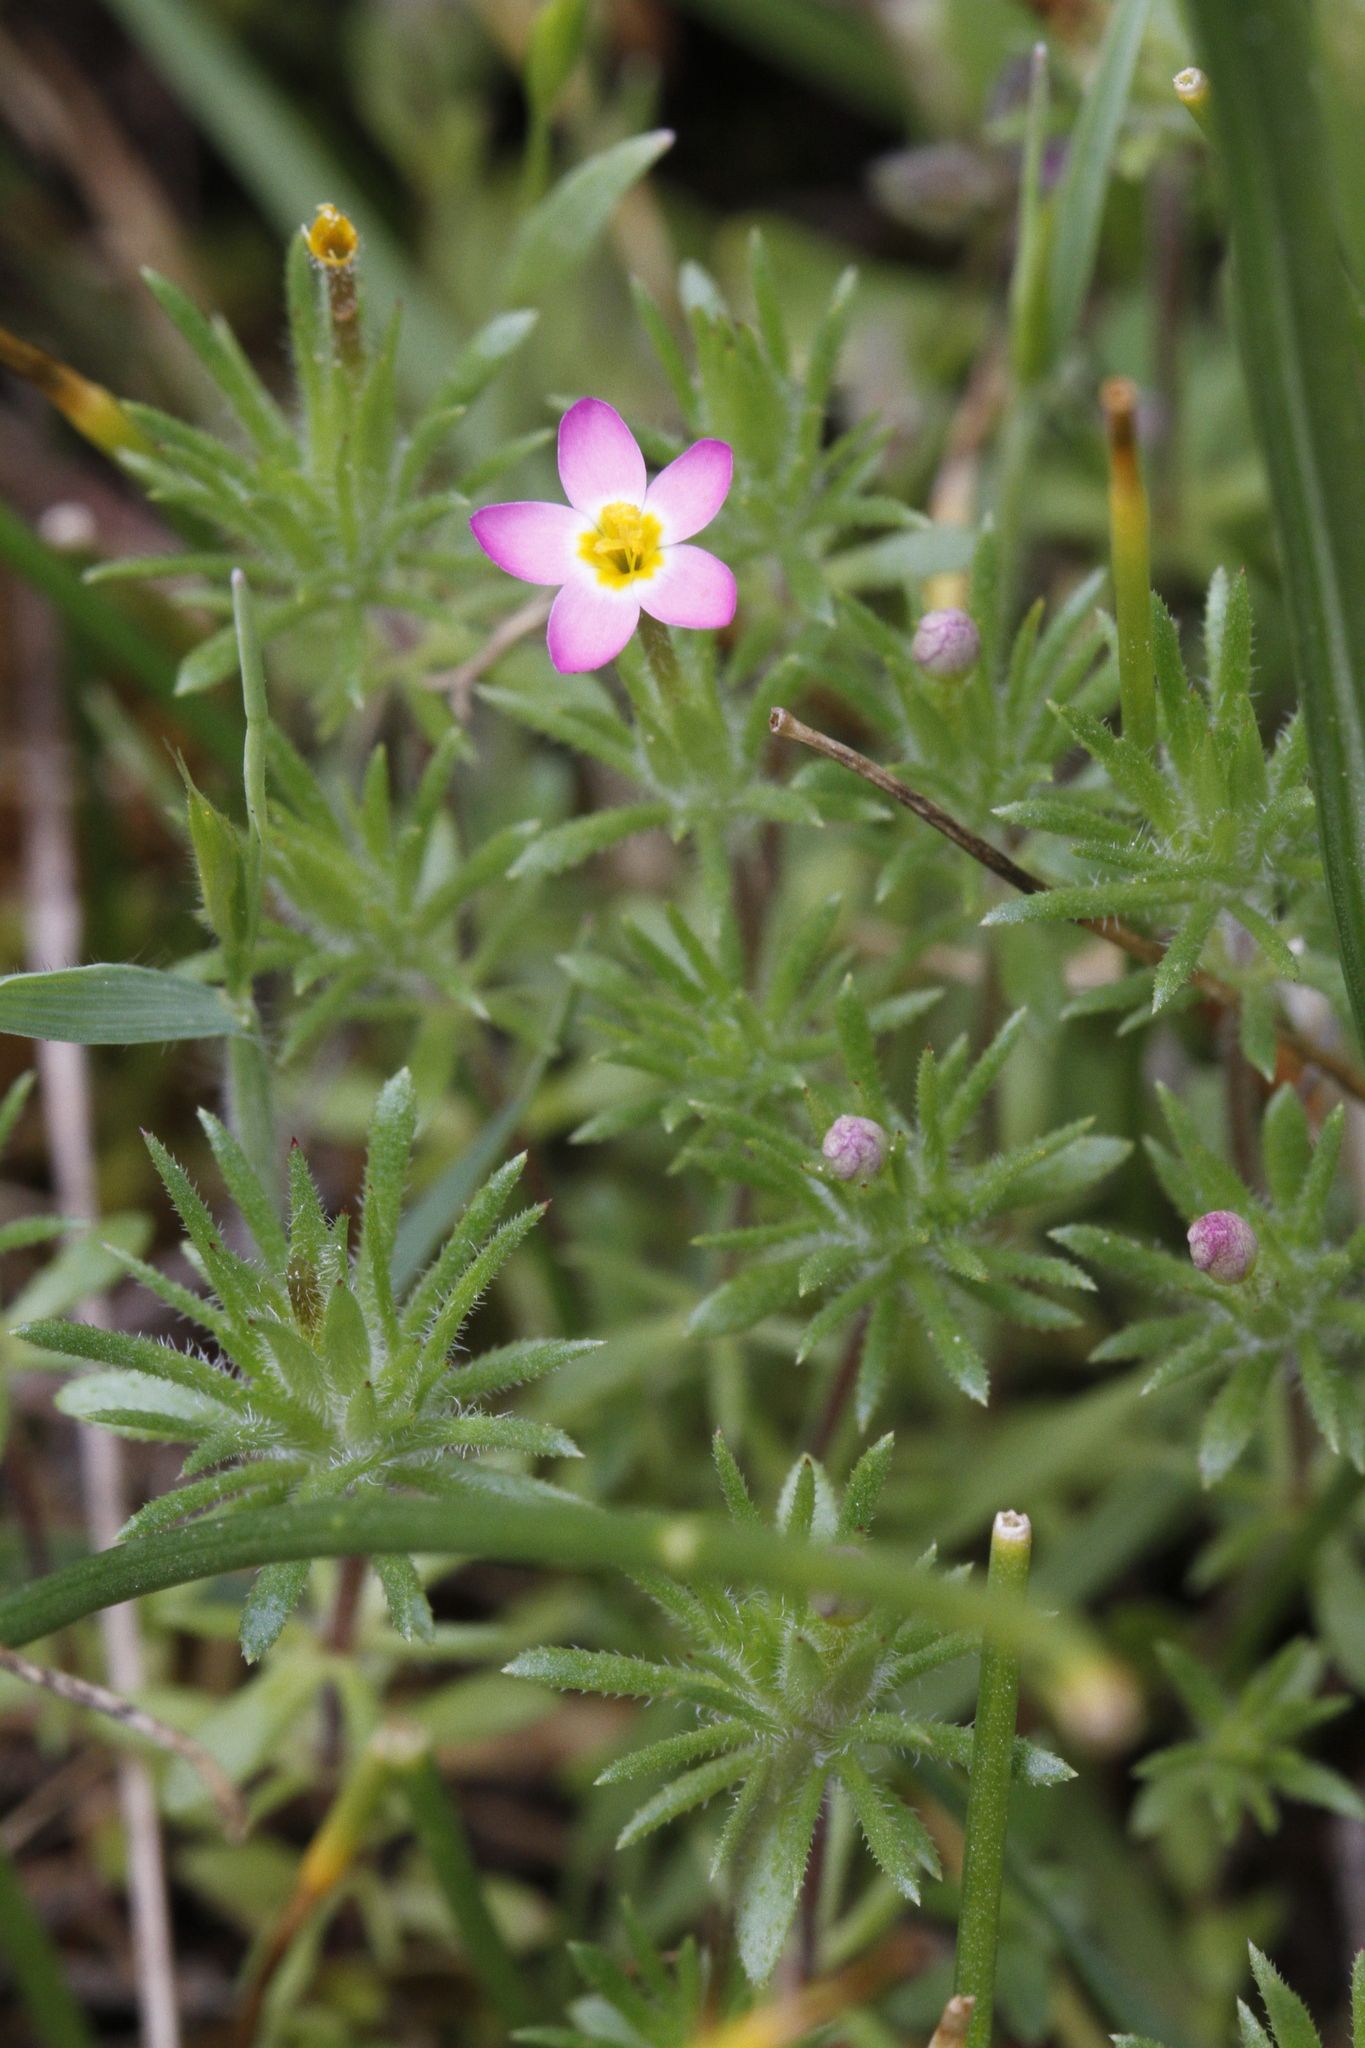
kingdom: Plantae
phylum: Tracheophyta
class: Magnoliopsida
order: Ericales
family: Polemoniaceae
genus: Leptosiphon
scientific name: Leptosiphon bicolor
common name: True babystars
